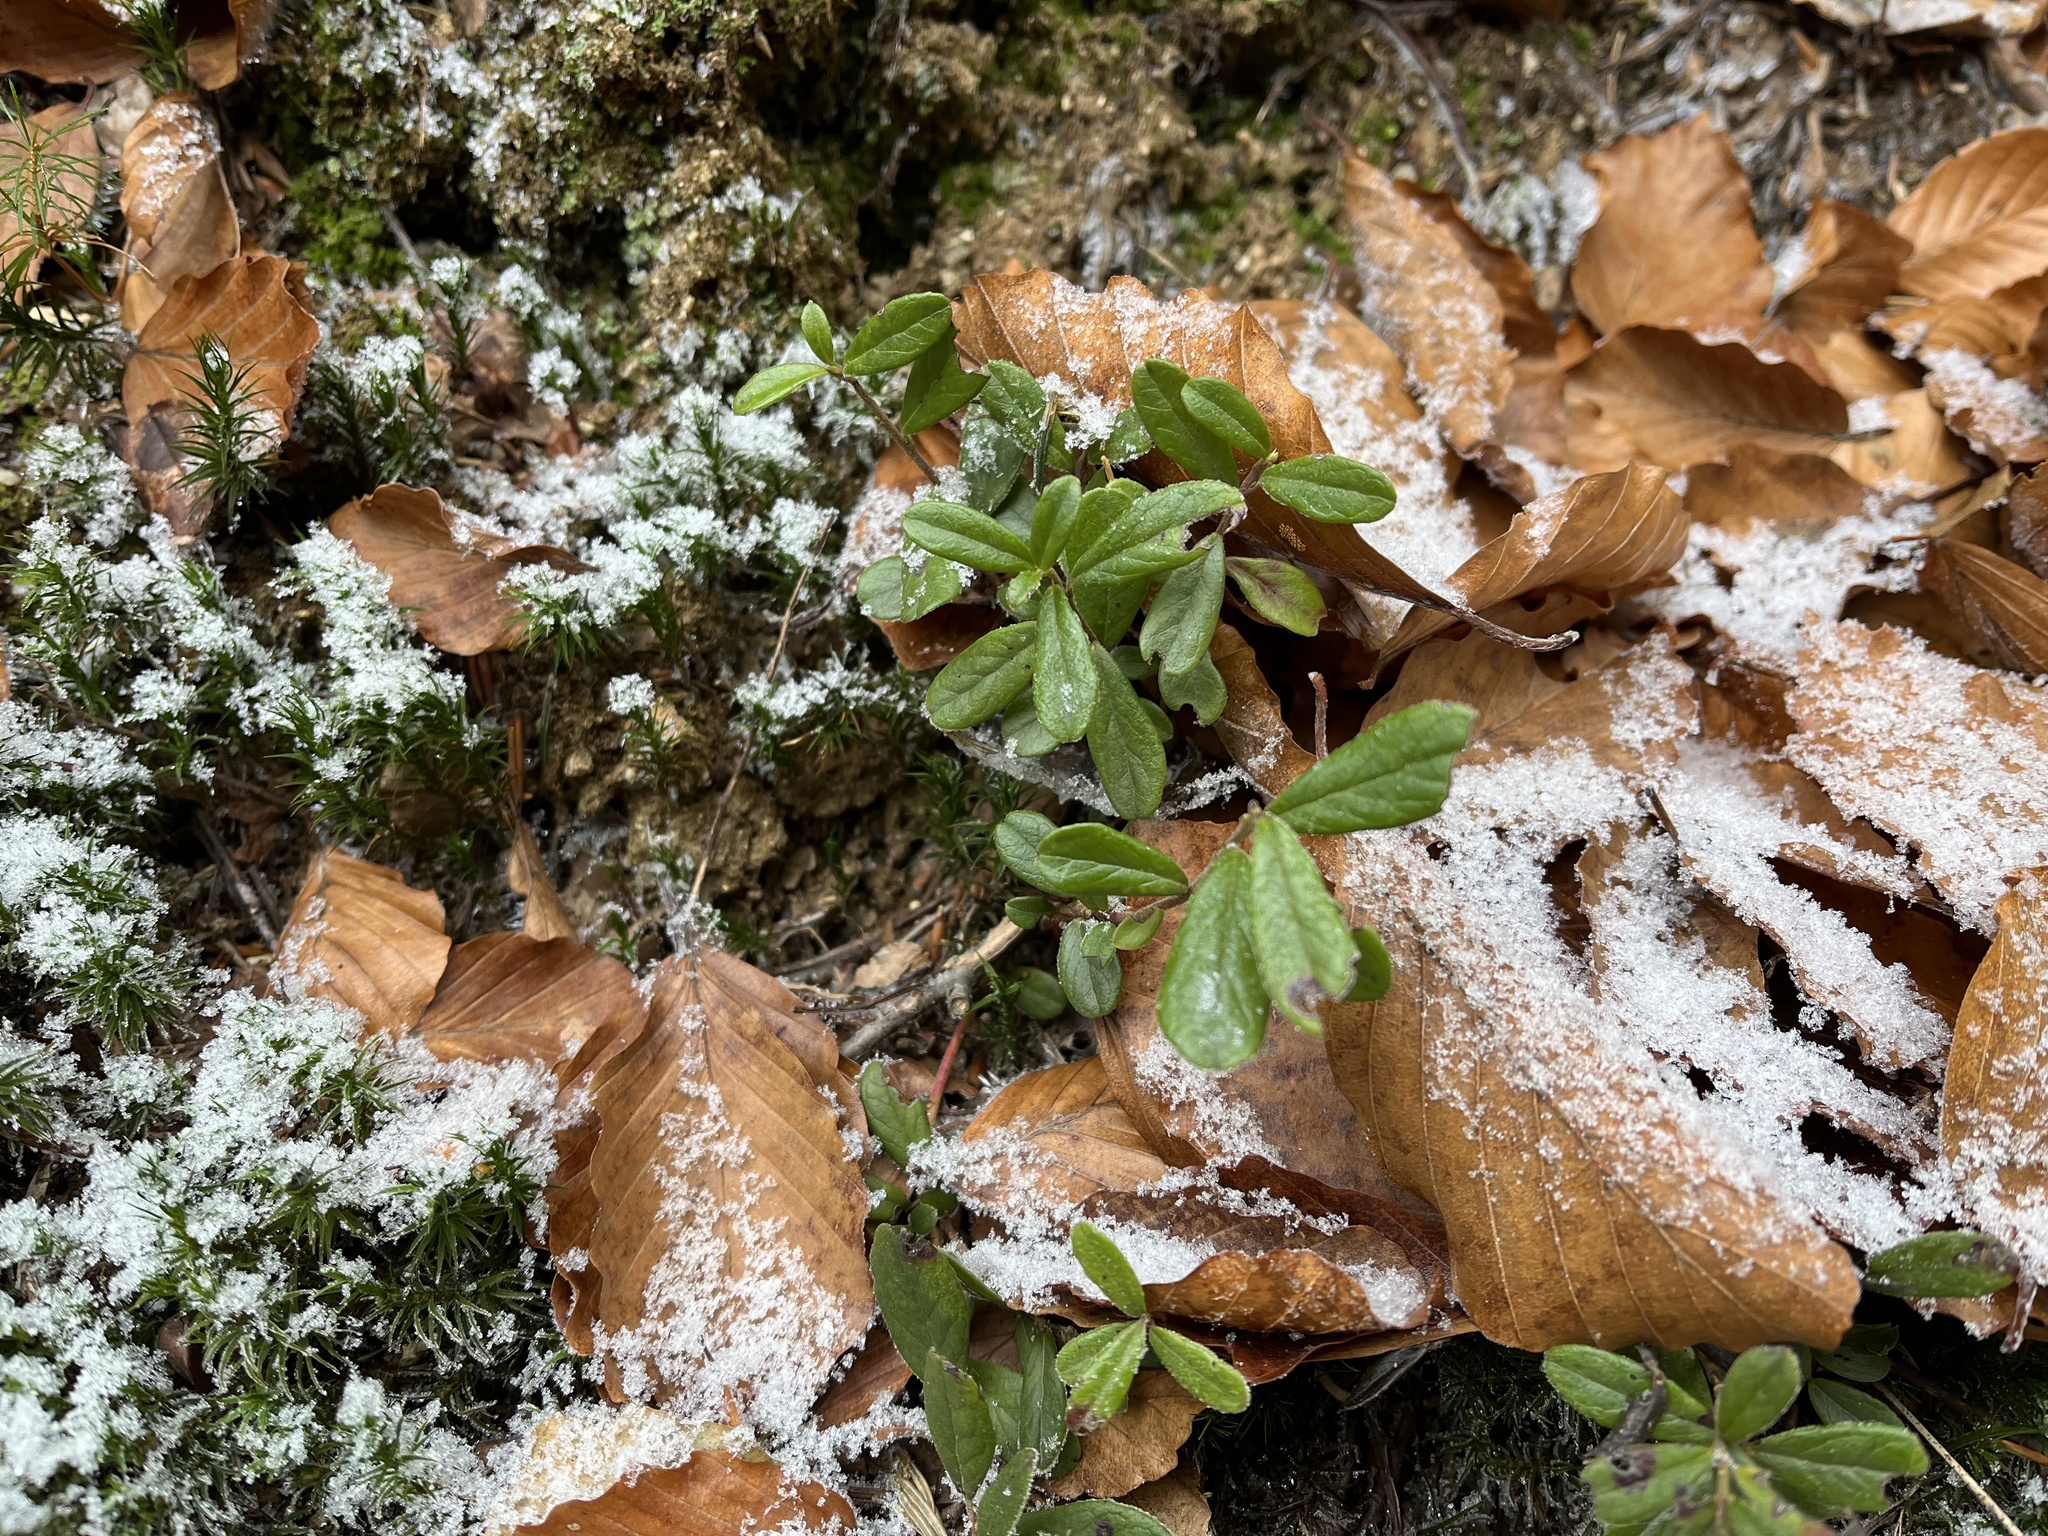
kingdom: Plantae
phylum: Tracheophyta
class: Magnoliopsida
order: Ericales
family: Ericaceae
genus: Vaccinium
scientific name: Vaccinium vitis-idaea
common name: Cowberry
